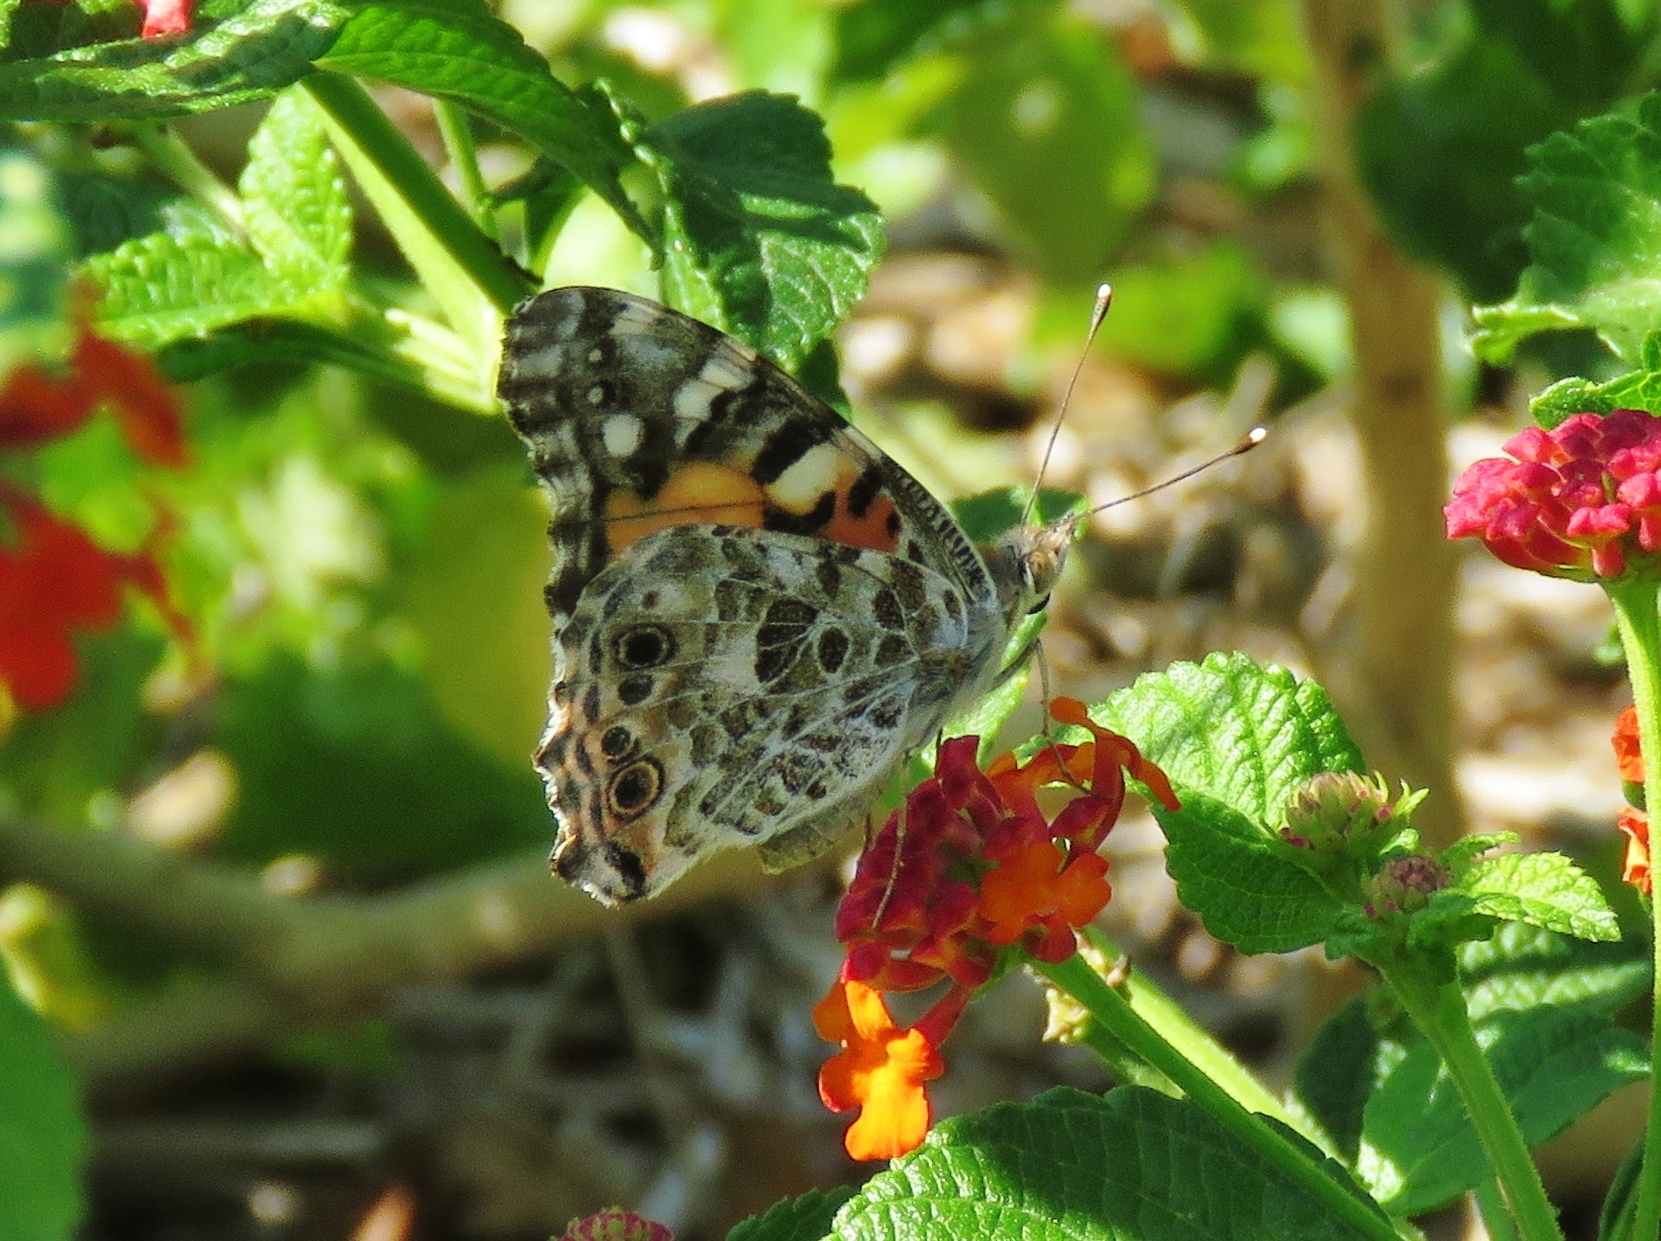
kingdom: Animalia
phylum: Arthropoda
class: Insecta
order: Lepidoptera
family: Nymphalidae
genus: Vanessa
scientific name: Vanessa cardui
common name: Painted lady
